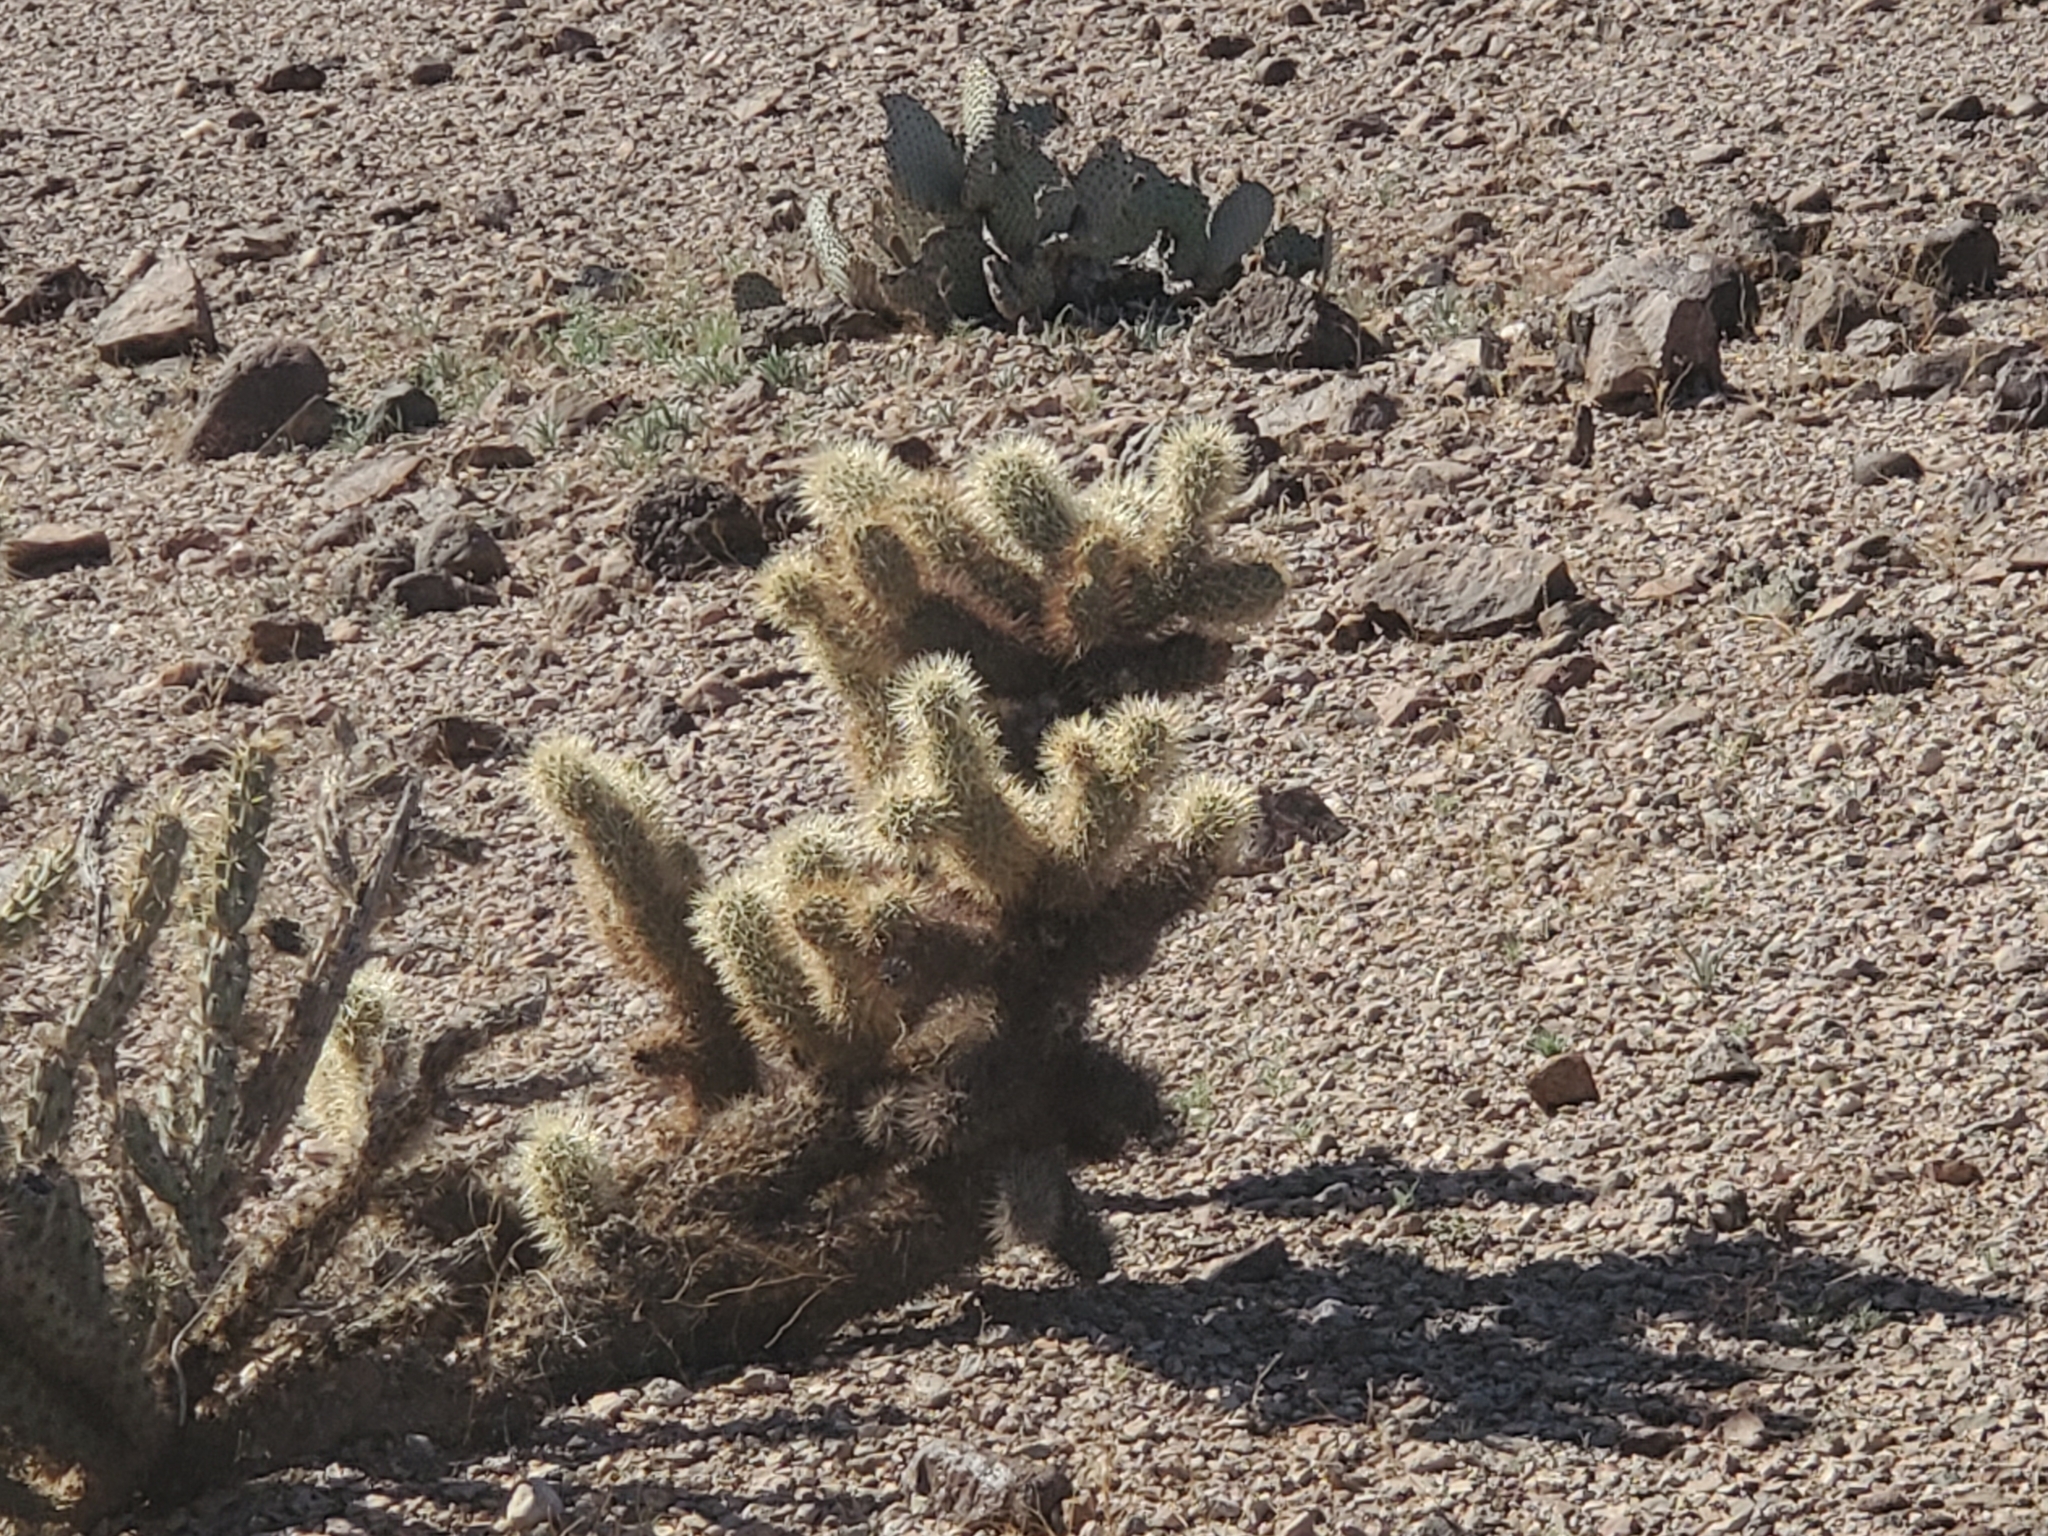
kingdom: Plantae
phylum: Tracheophyta
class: Magnoliopsida
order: Caryophyllales
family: Cactaceae
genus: Cylindropuntia
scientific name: Cylindropuntia fosbergii
